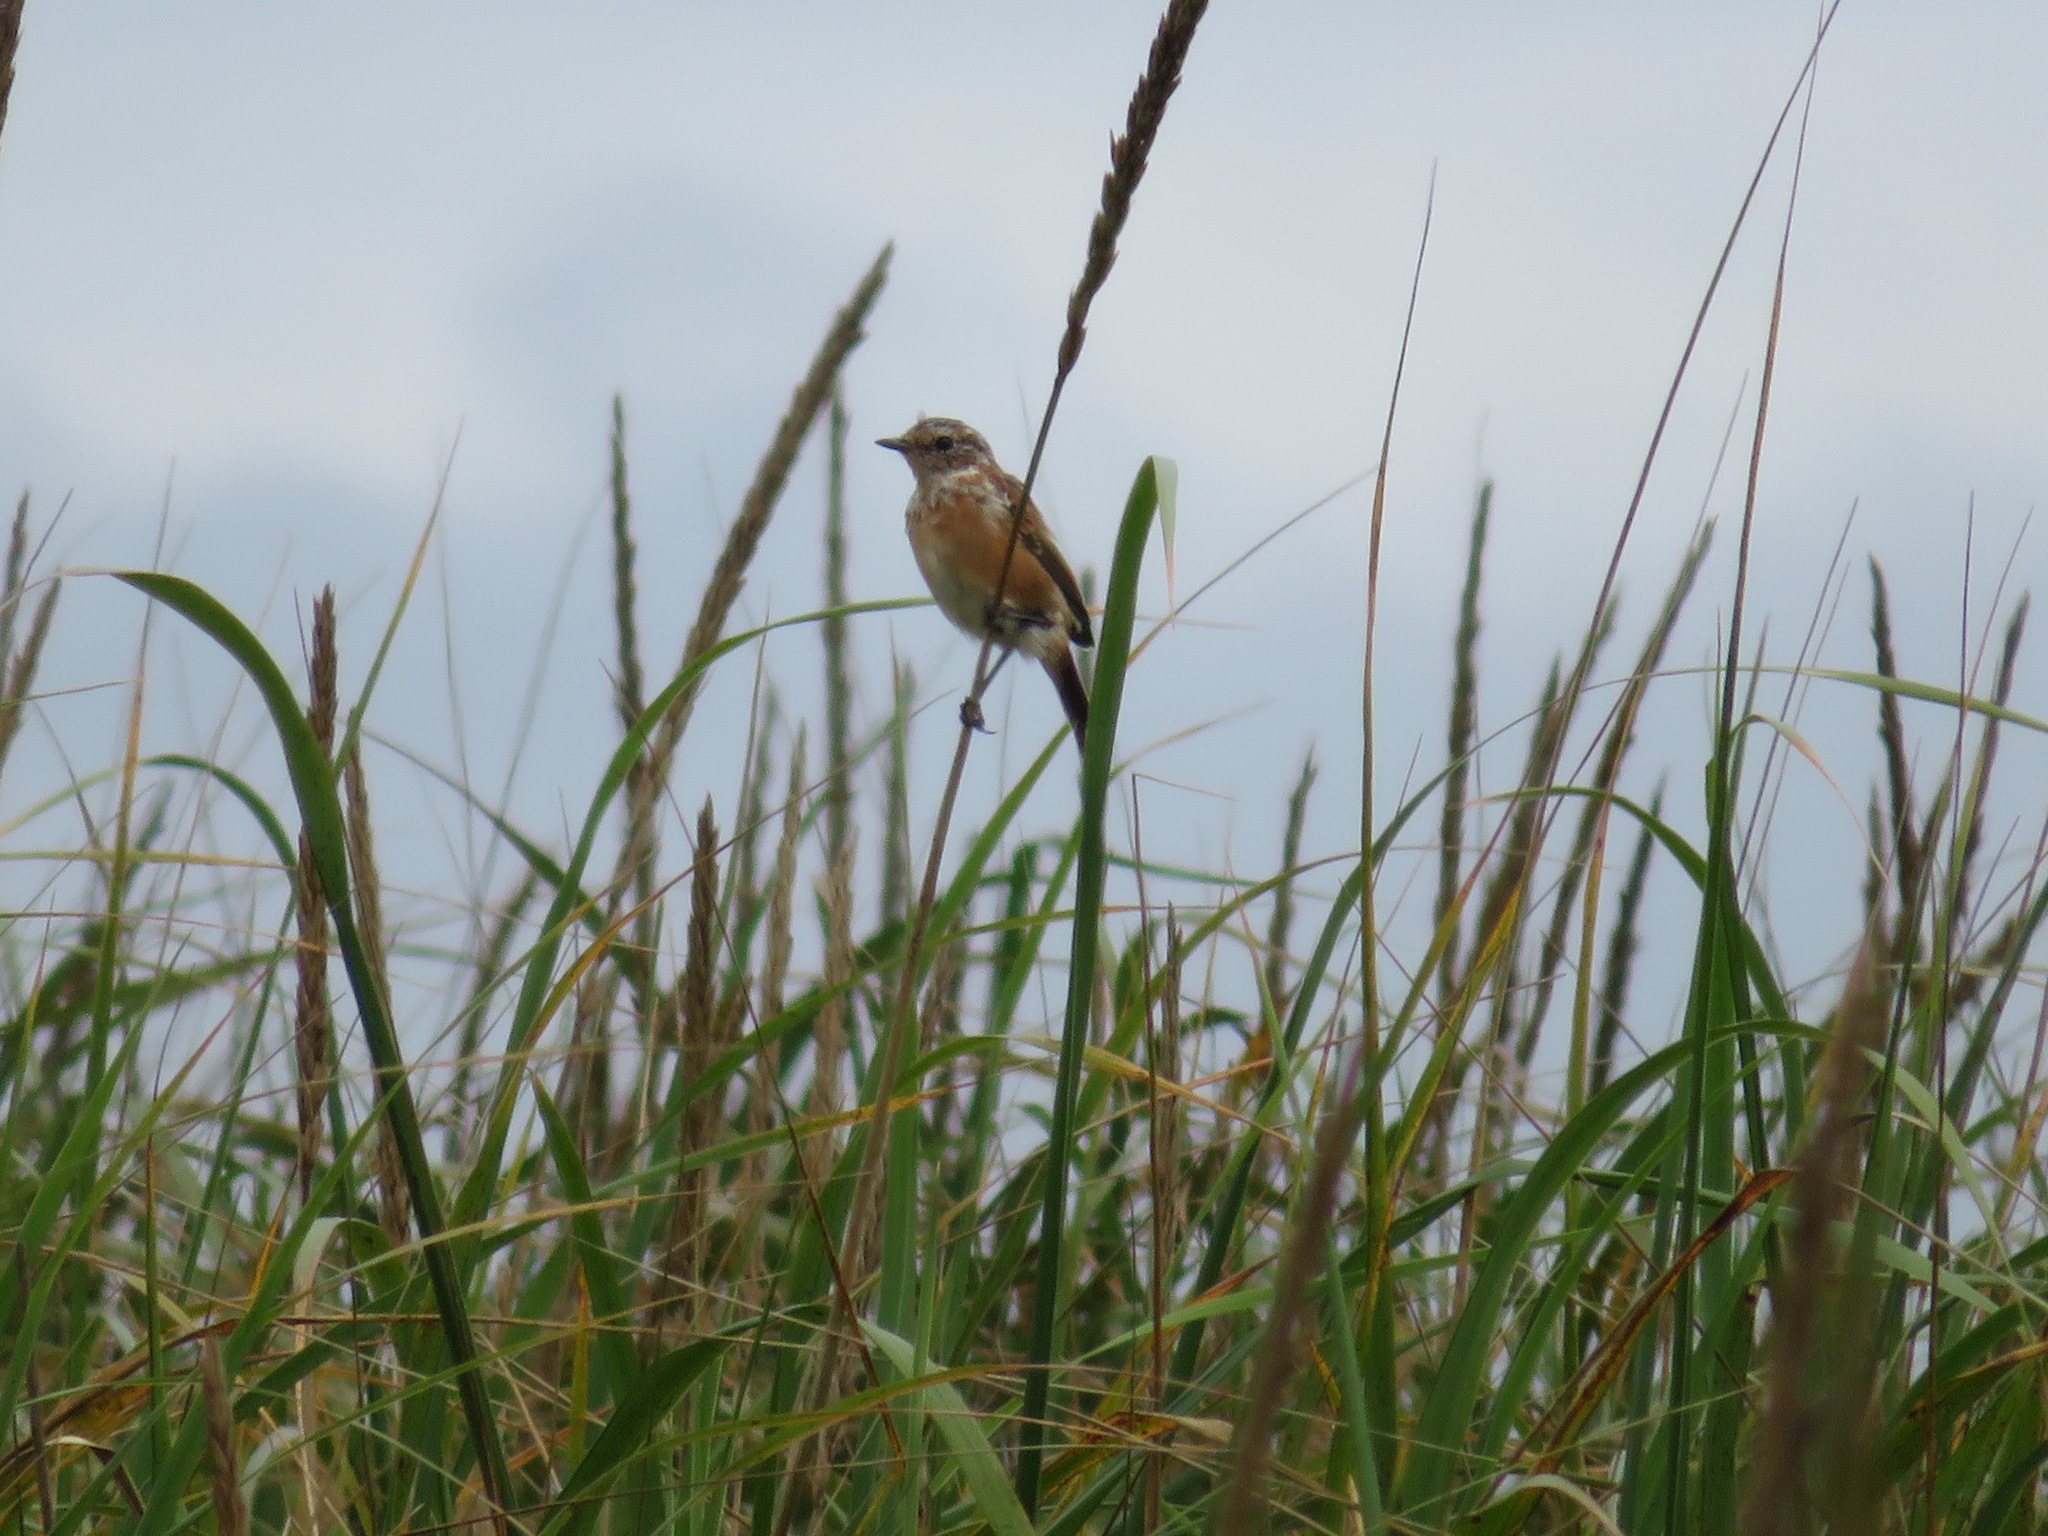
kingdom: Animalia
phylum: Chordata
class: Aves
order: Passeriformes
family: Muscicapidae
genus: Saxicola
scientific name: Saxicola stejnegeri
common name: Stejneger's stonechat
